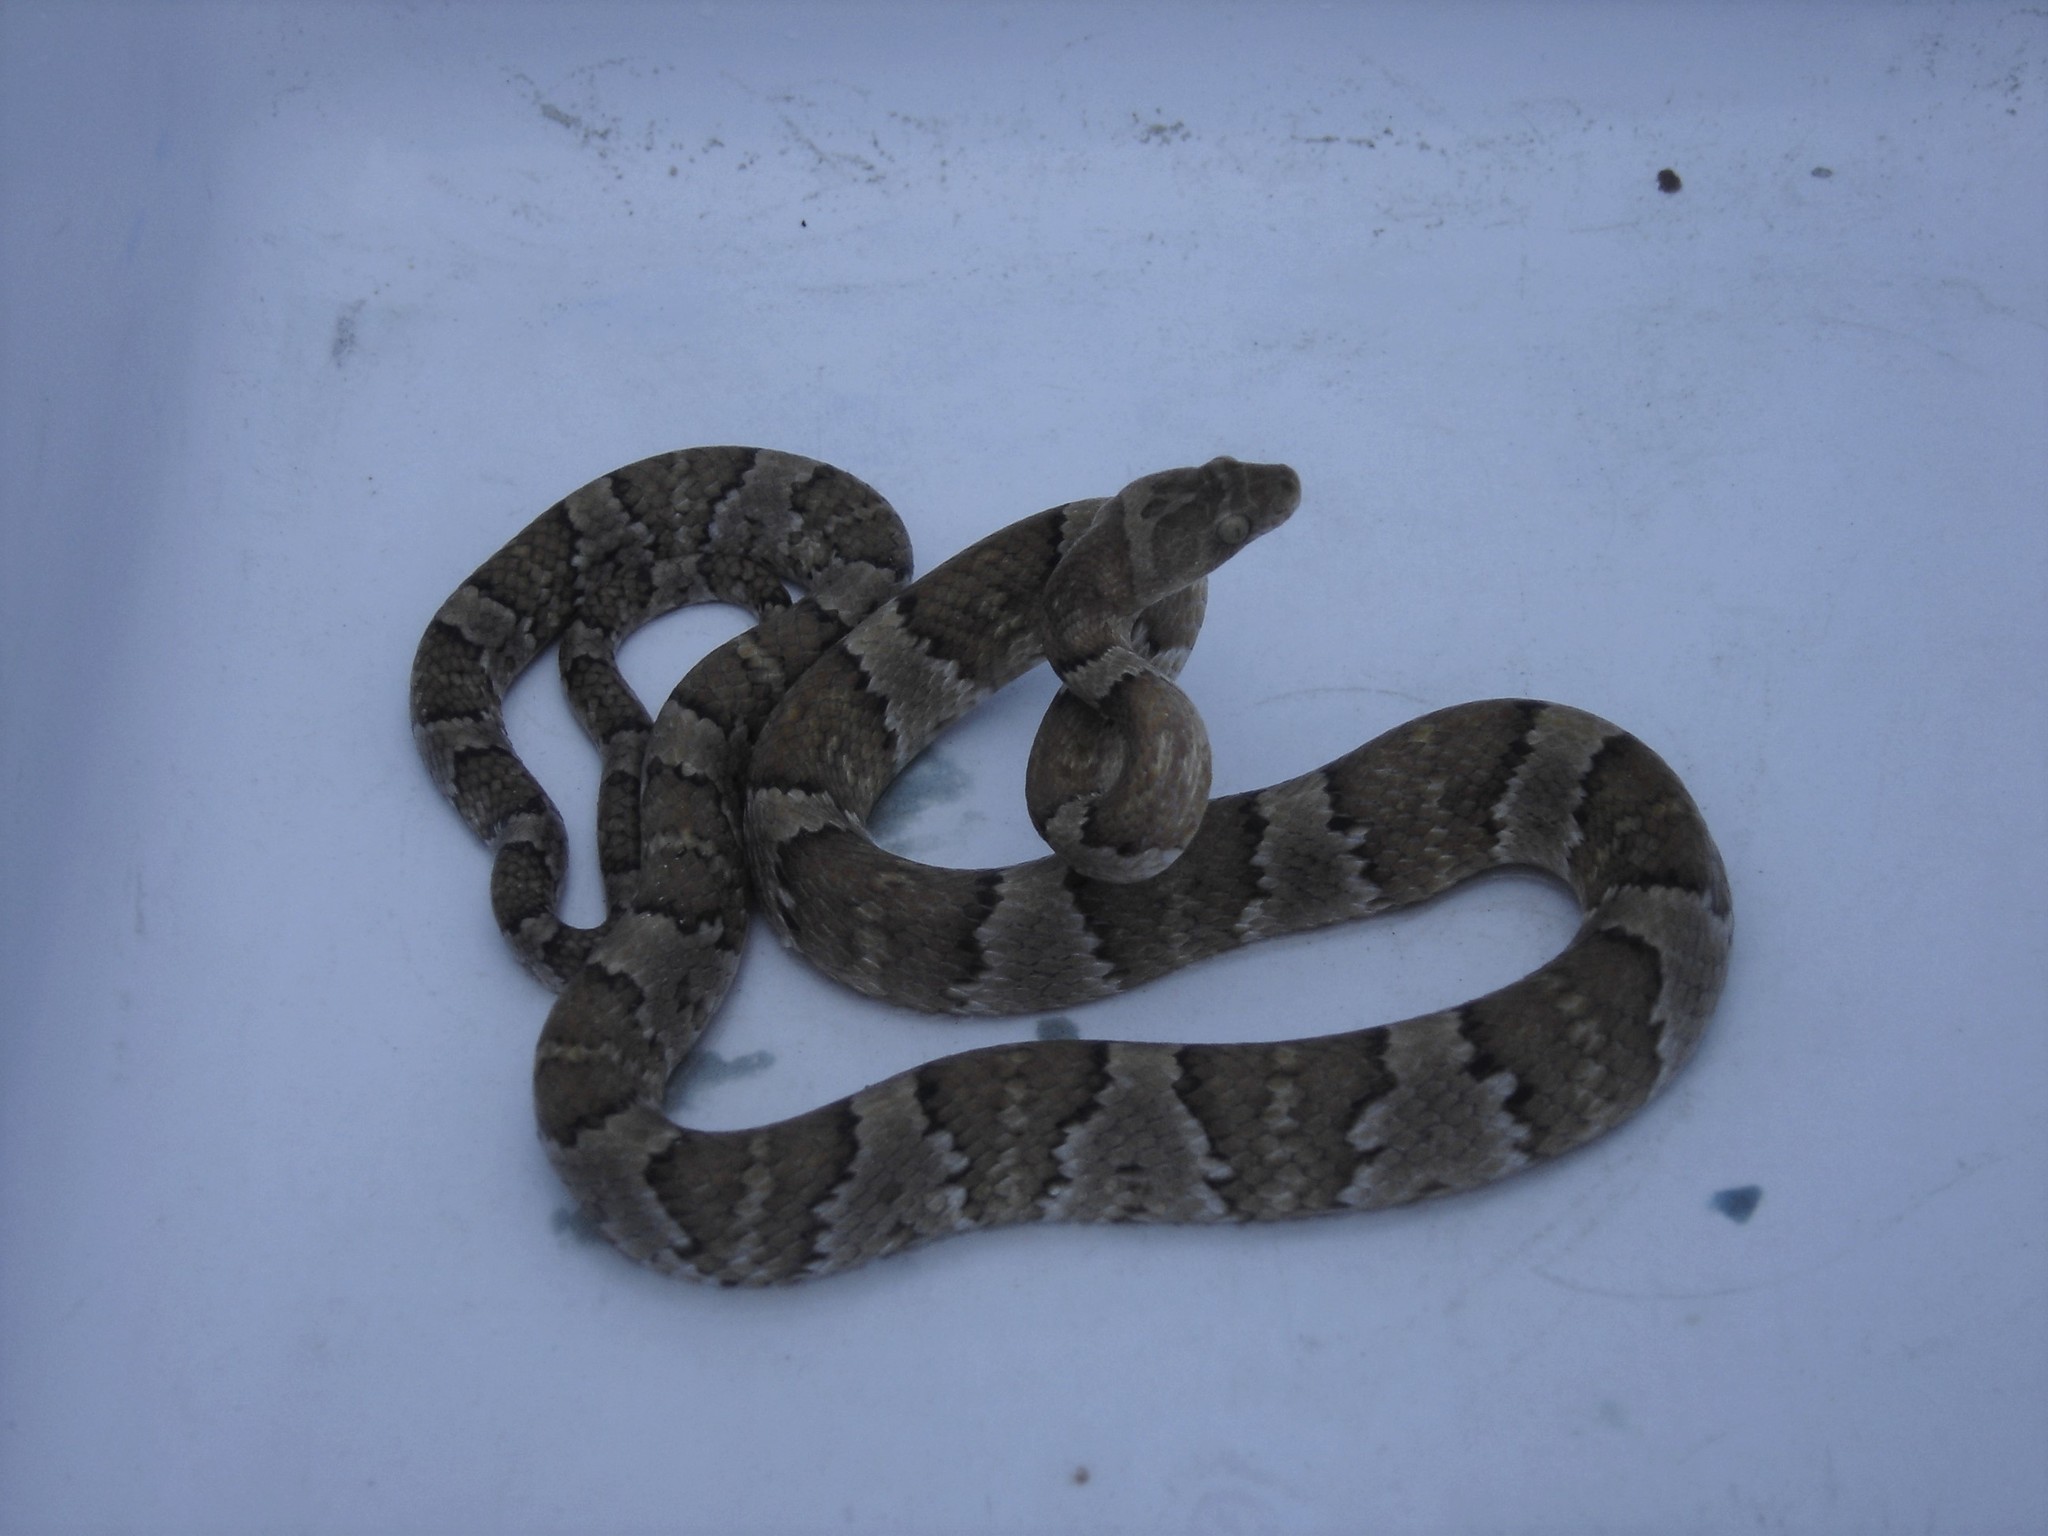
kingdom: Animalia
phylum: Chordata
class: Squamata
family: Colubridae
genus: Trimorphodon
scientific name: Trimorphodon tau
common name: Mexican lyre snake
